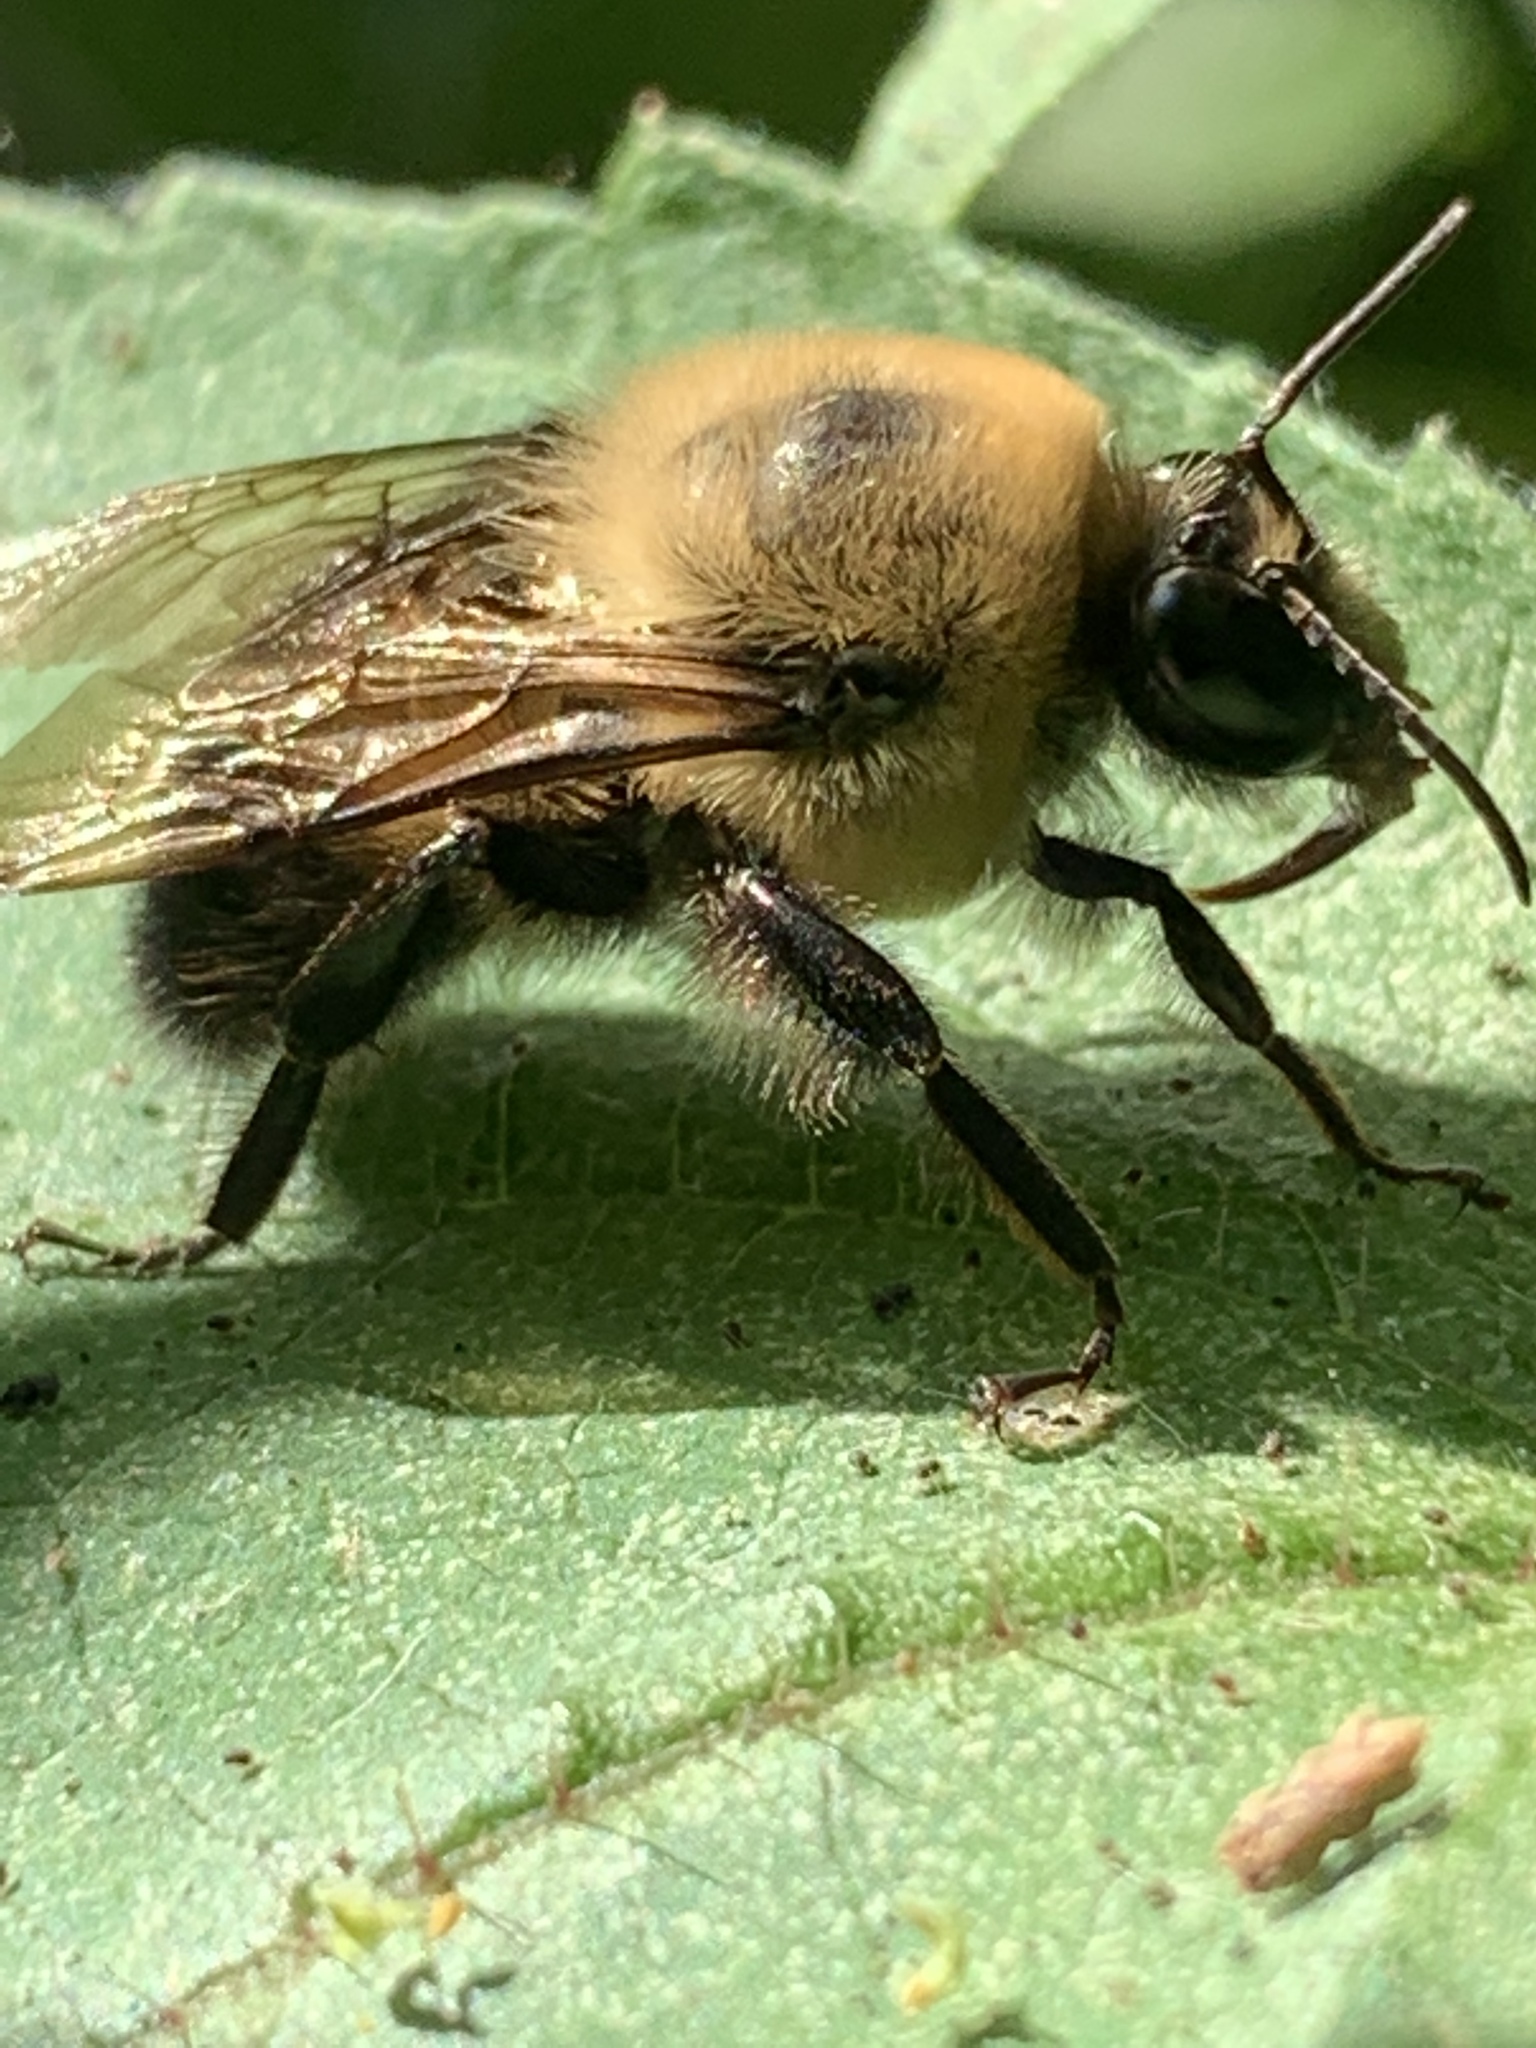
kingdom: Animalia
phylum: Arthropoda
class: Insecta
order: Hymenoptera
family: Apidae
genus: Bombus
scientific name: Bombus griseocollis
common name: Brown-belted bumble bee
